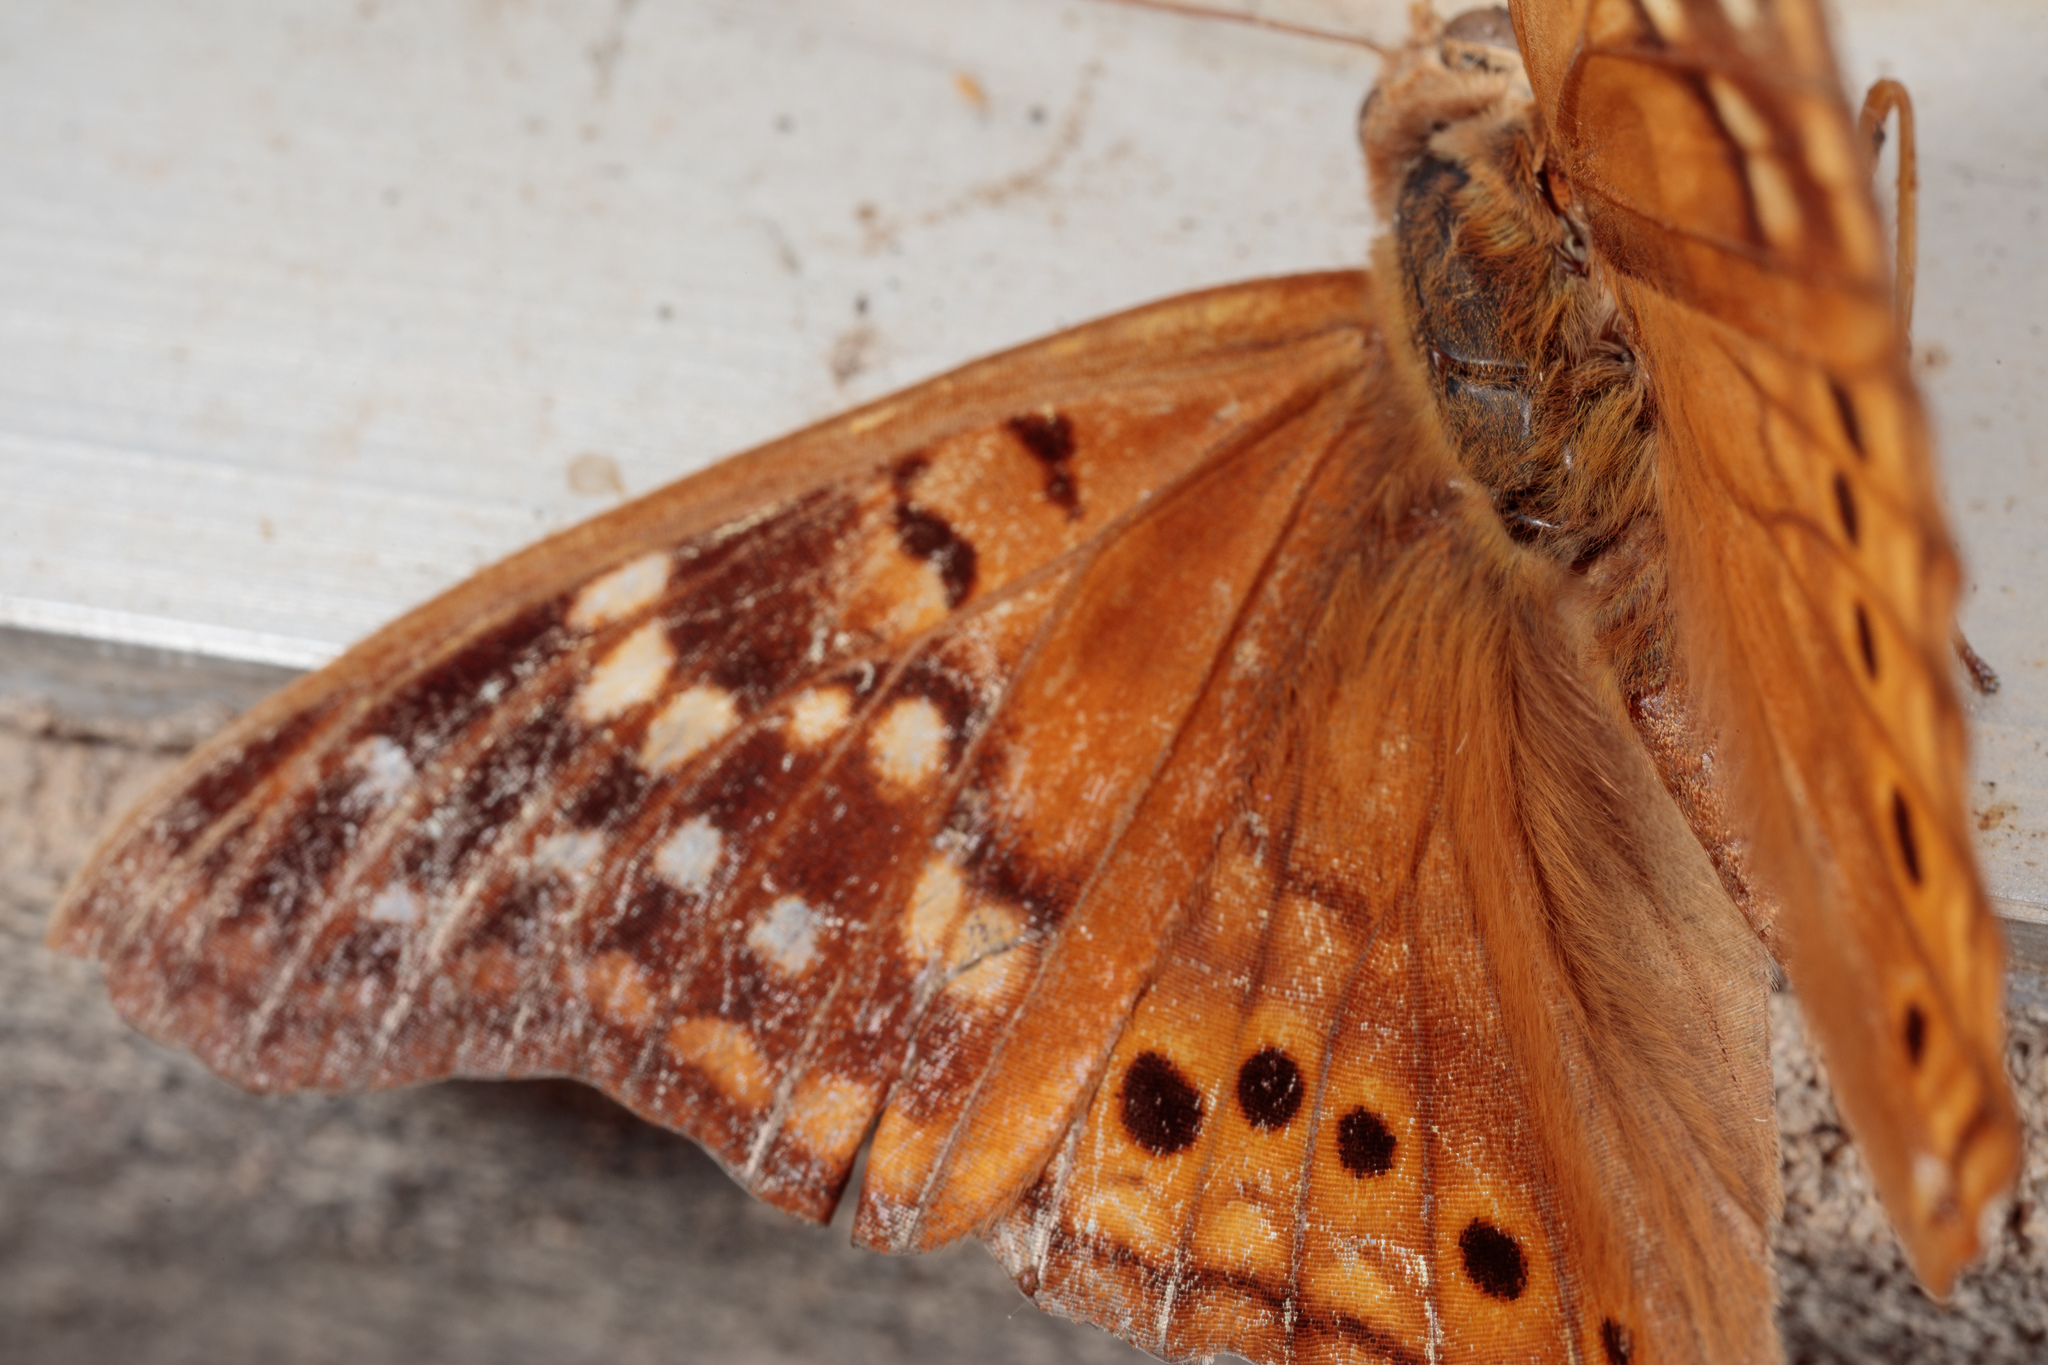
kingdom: Animalia
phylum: Arthropoda
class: Insecta
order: Lepidoptera
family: Nymphalidae
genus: Asterocampa
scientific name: Asterocampa clyton
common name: Tawny emperor
